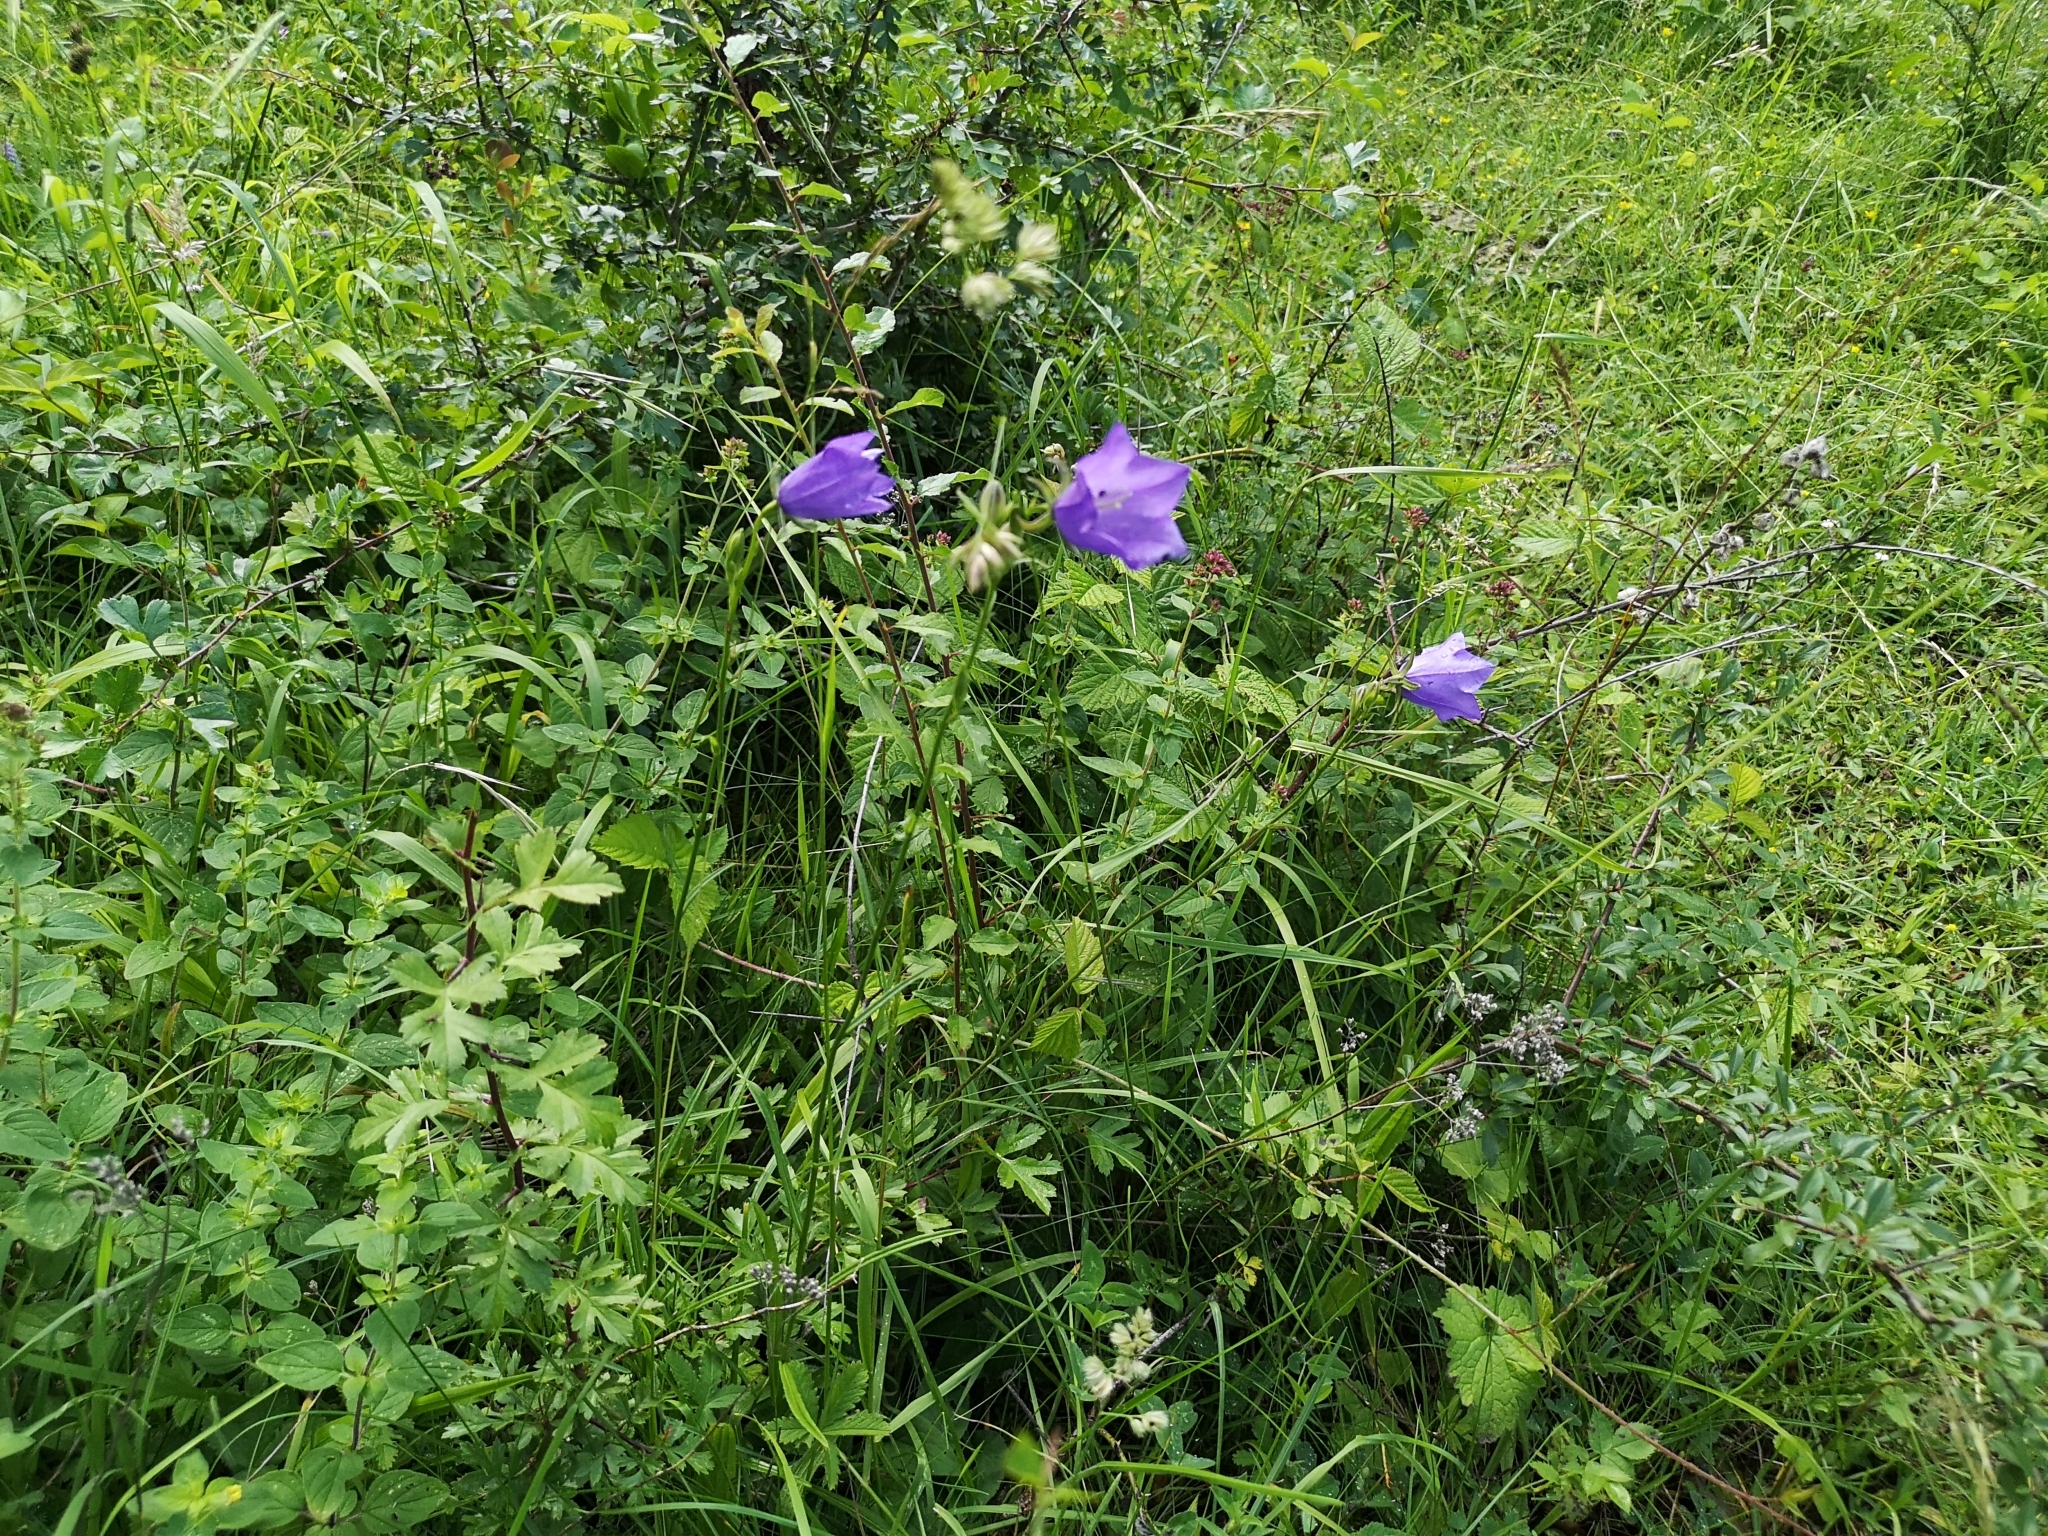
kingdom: Plantae
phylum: Tracheophyta
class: Magnoliopsida
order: Asterales
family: Campanulaceae
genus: Campanula
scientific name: Campanula persicifolia
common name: Peach-leaved bellflower
